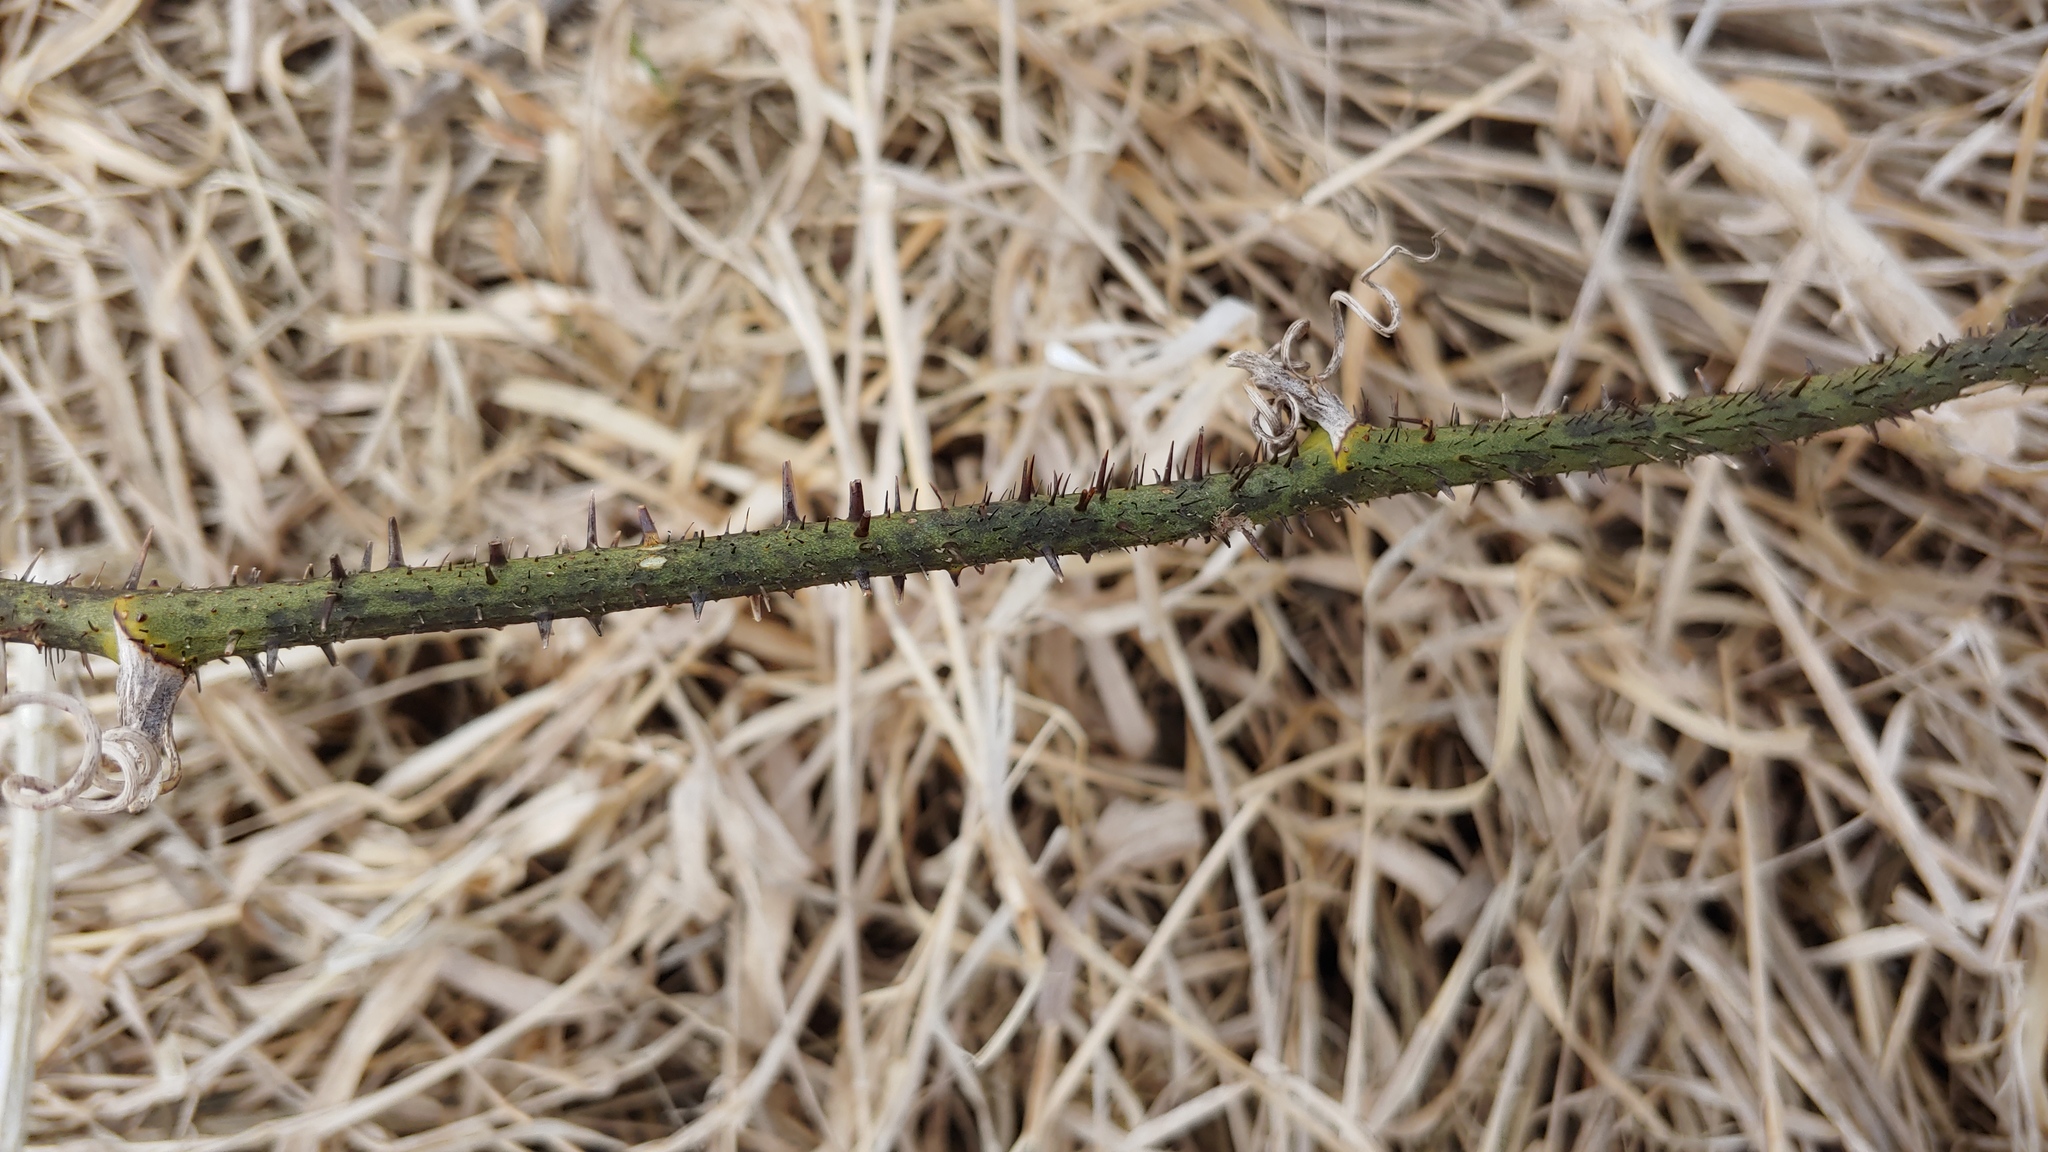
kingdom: Plantae
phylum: Tracheophyta
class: Liliopsida
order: Liliales
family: Smilacaceae
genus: Smilax
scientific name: Smilax tamnoides
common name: Hellfetter
